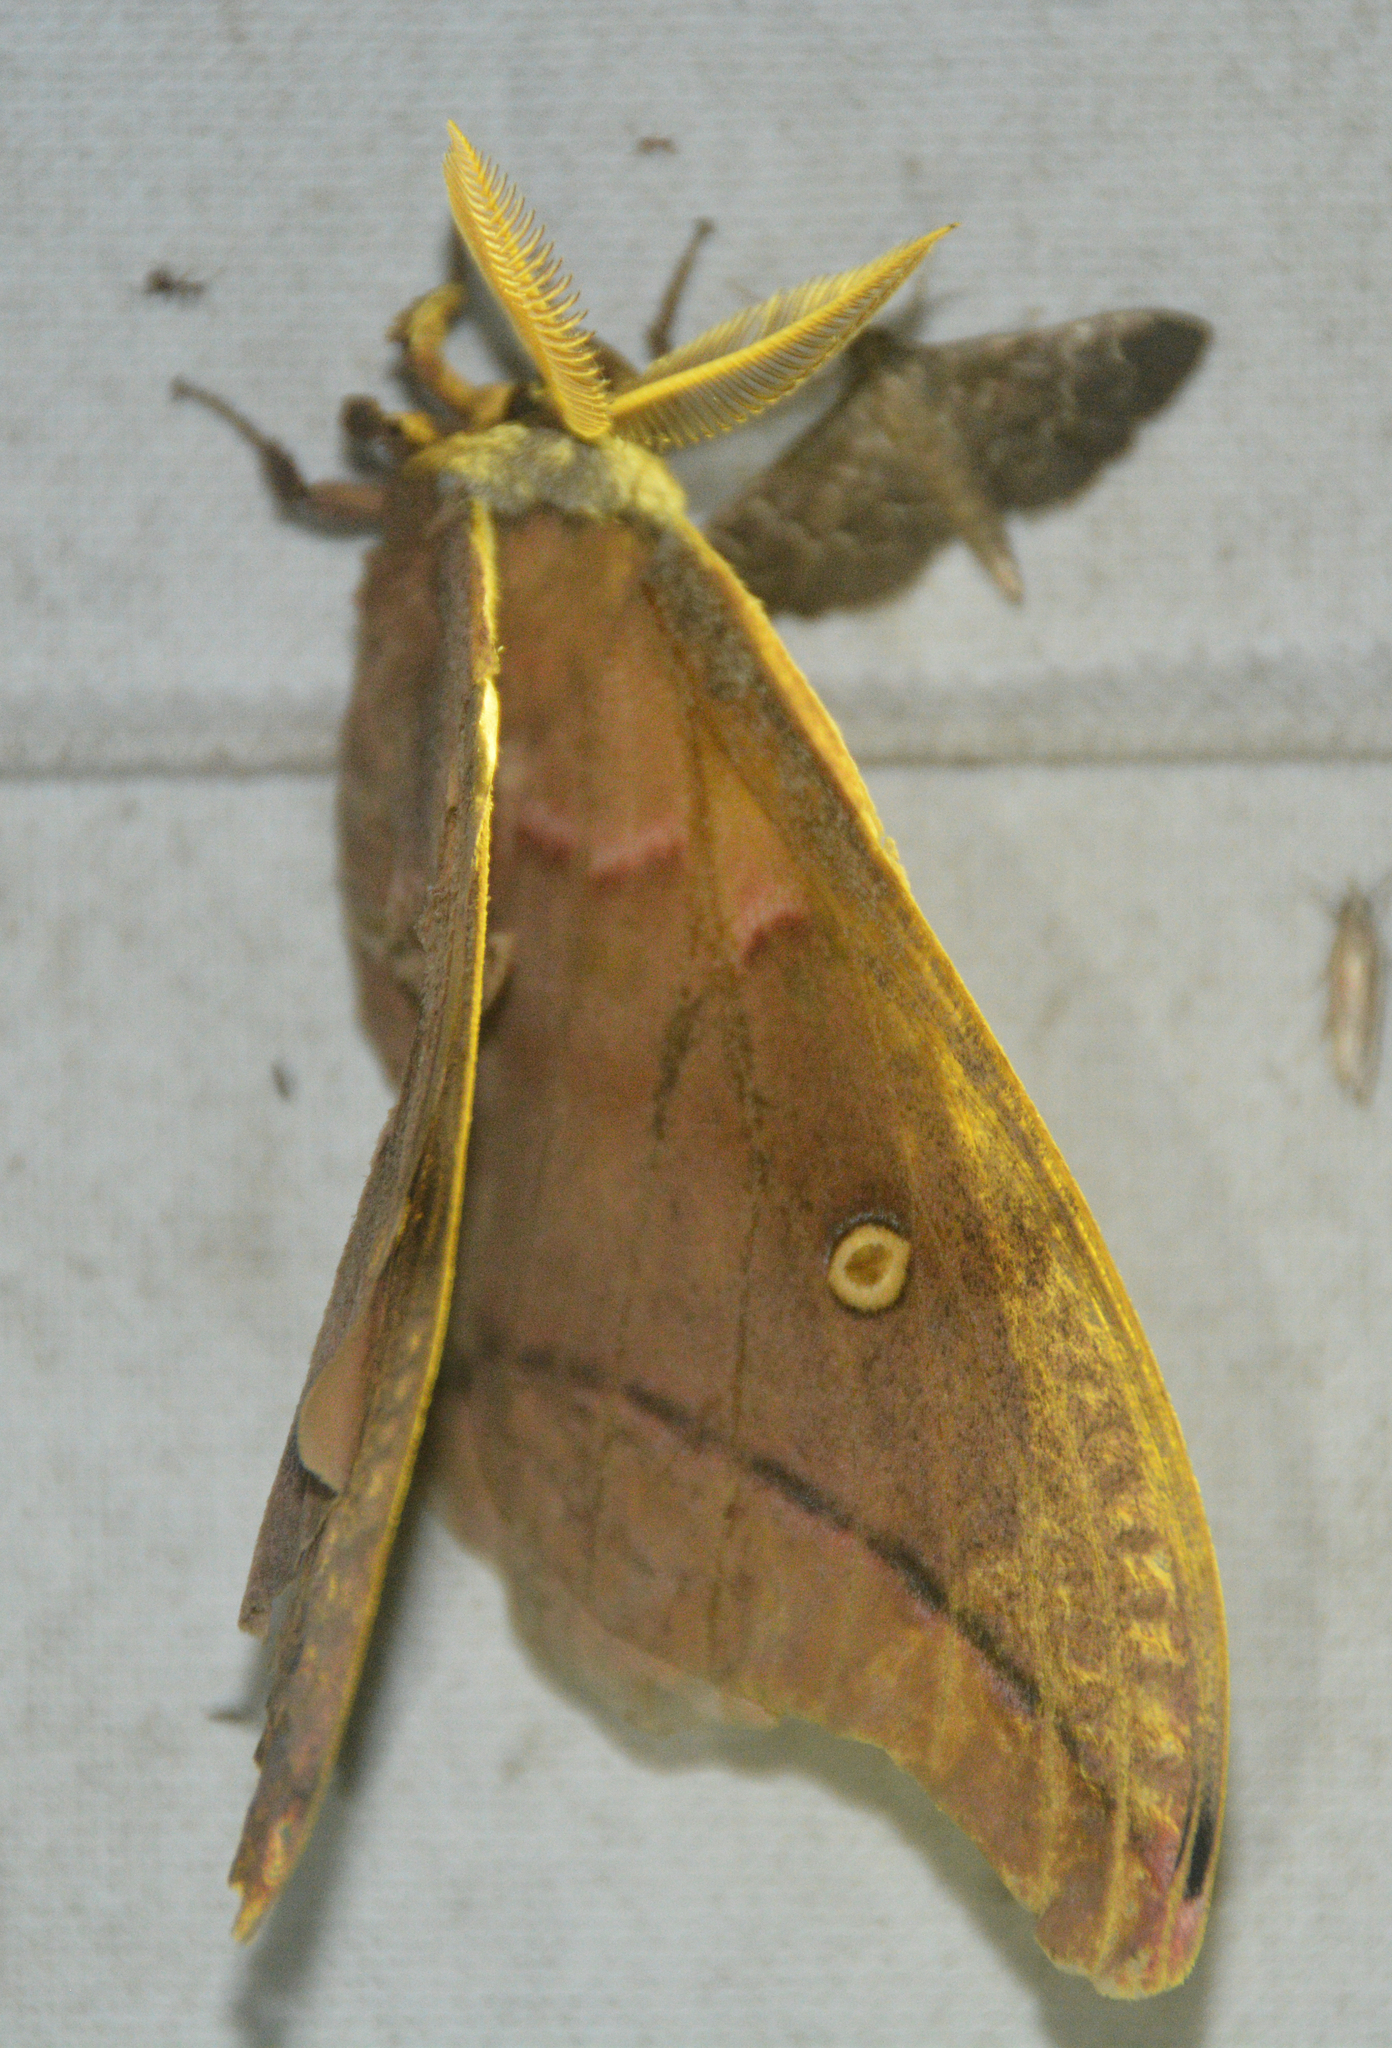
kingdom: Animalia
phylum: Arthropoda
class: Insecta
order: Lepidoptera
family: Saturniidae
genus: Antheraea
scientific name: Antheraea polyphemus
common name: Polyphemus moth
